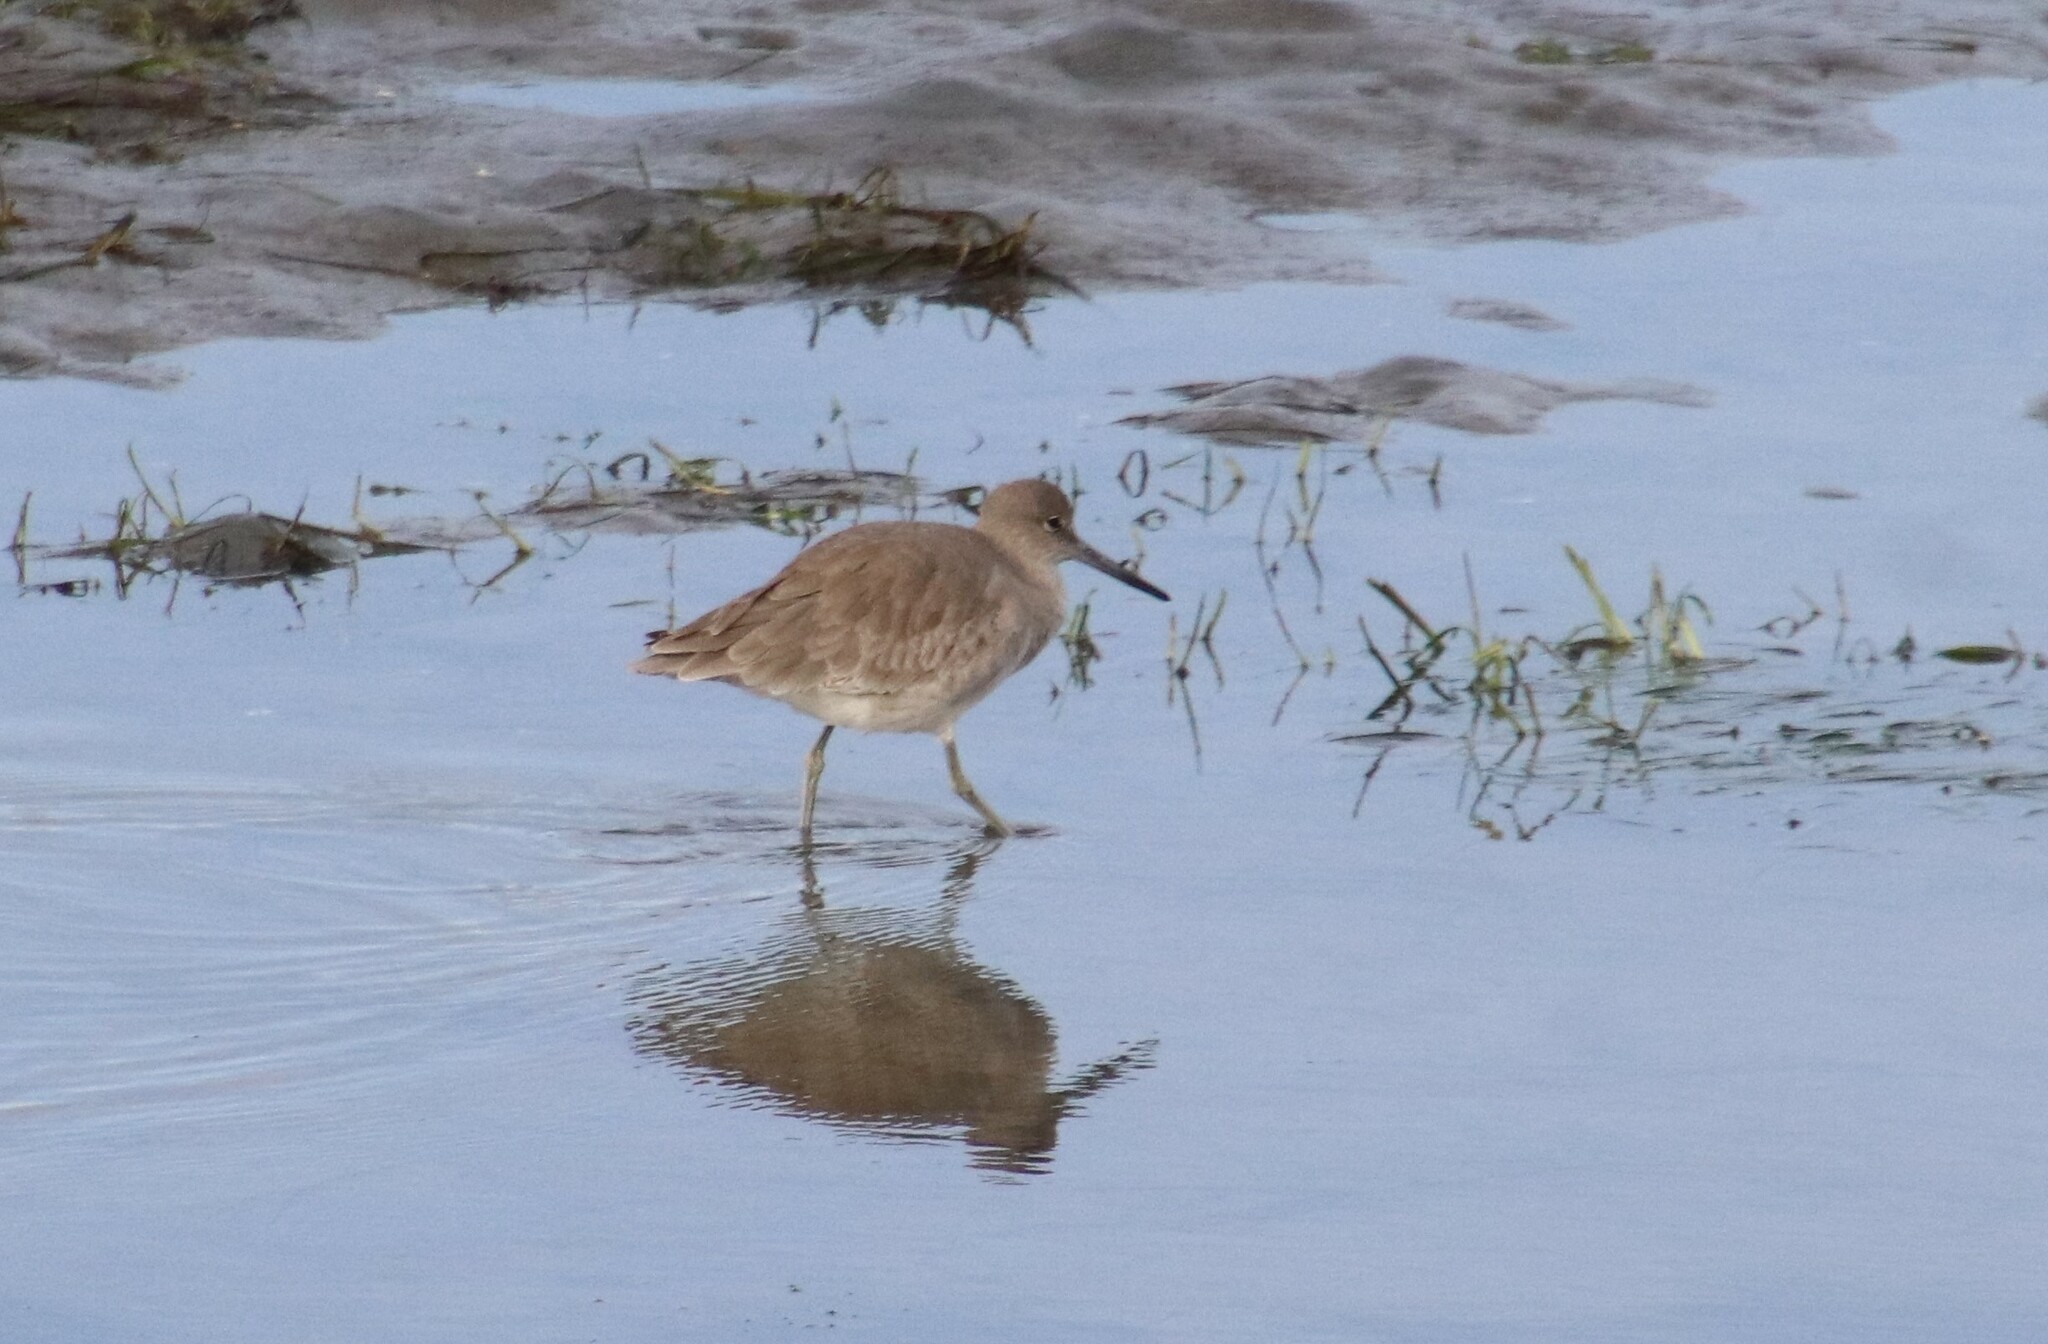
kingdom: Animalia
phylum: Chordata
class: Aves
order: Charadriiformes
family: Scolopacidae
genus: Tringa
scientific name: Tringa semipalmata
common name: Willet
